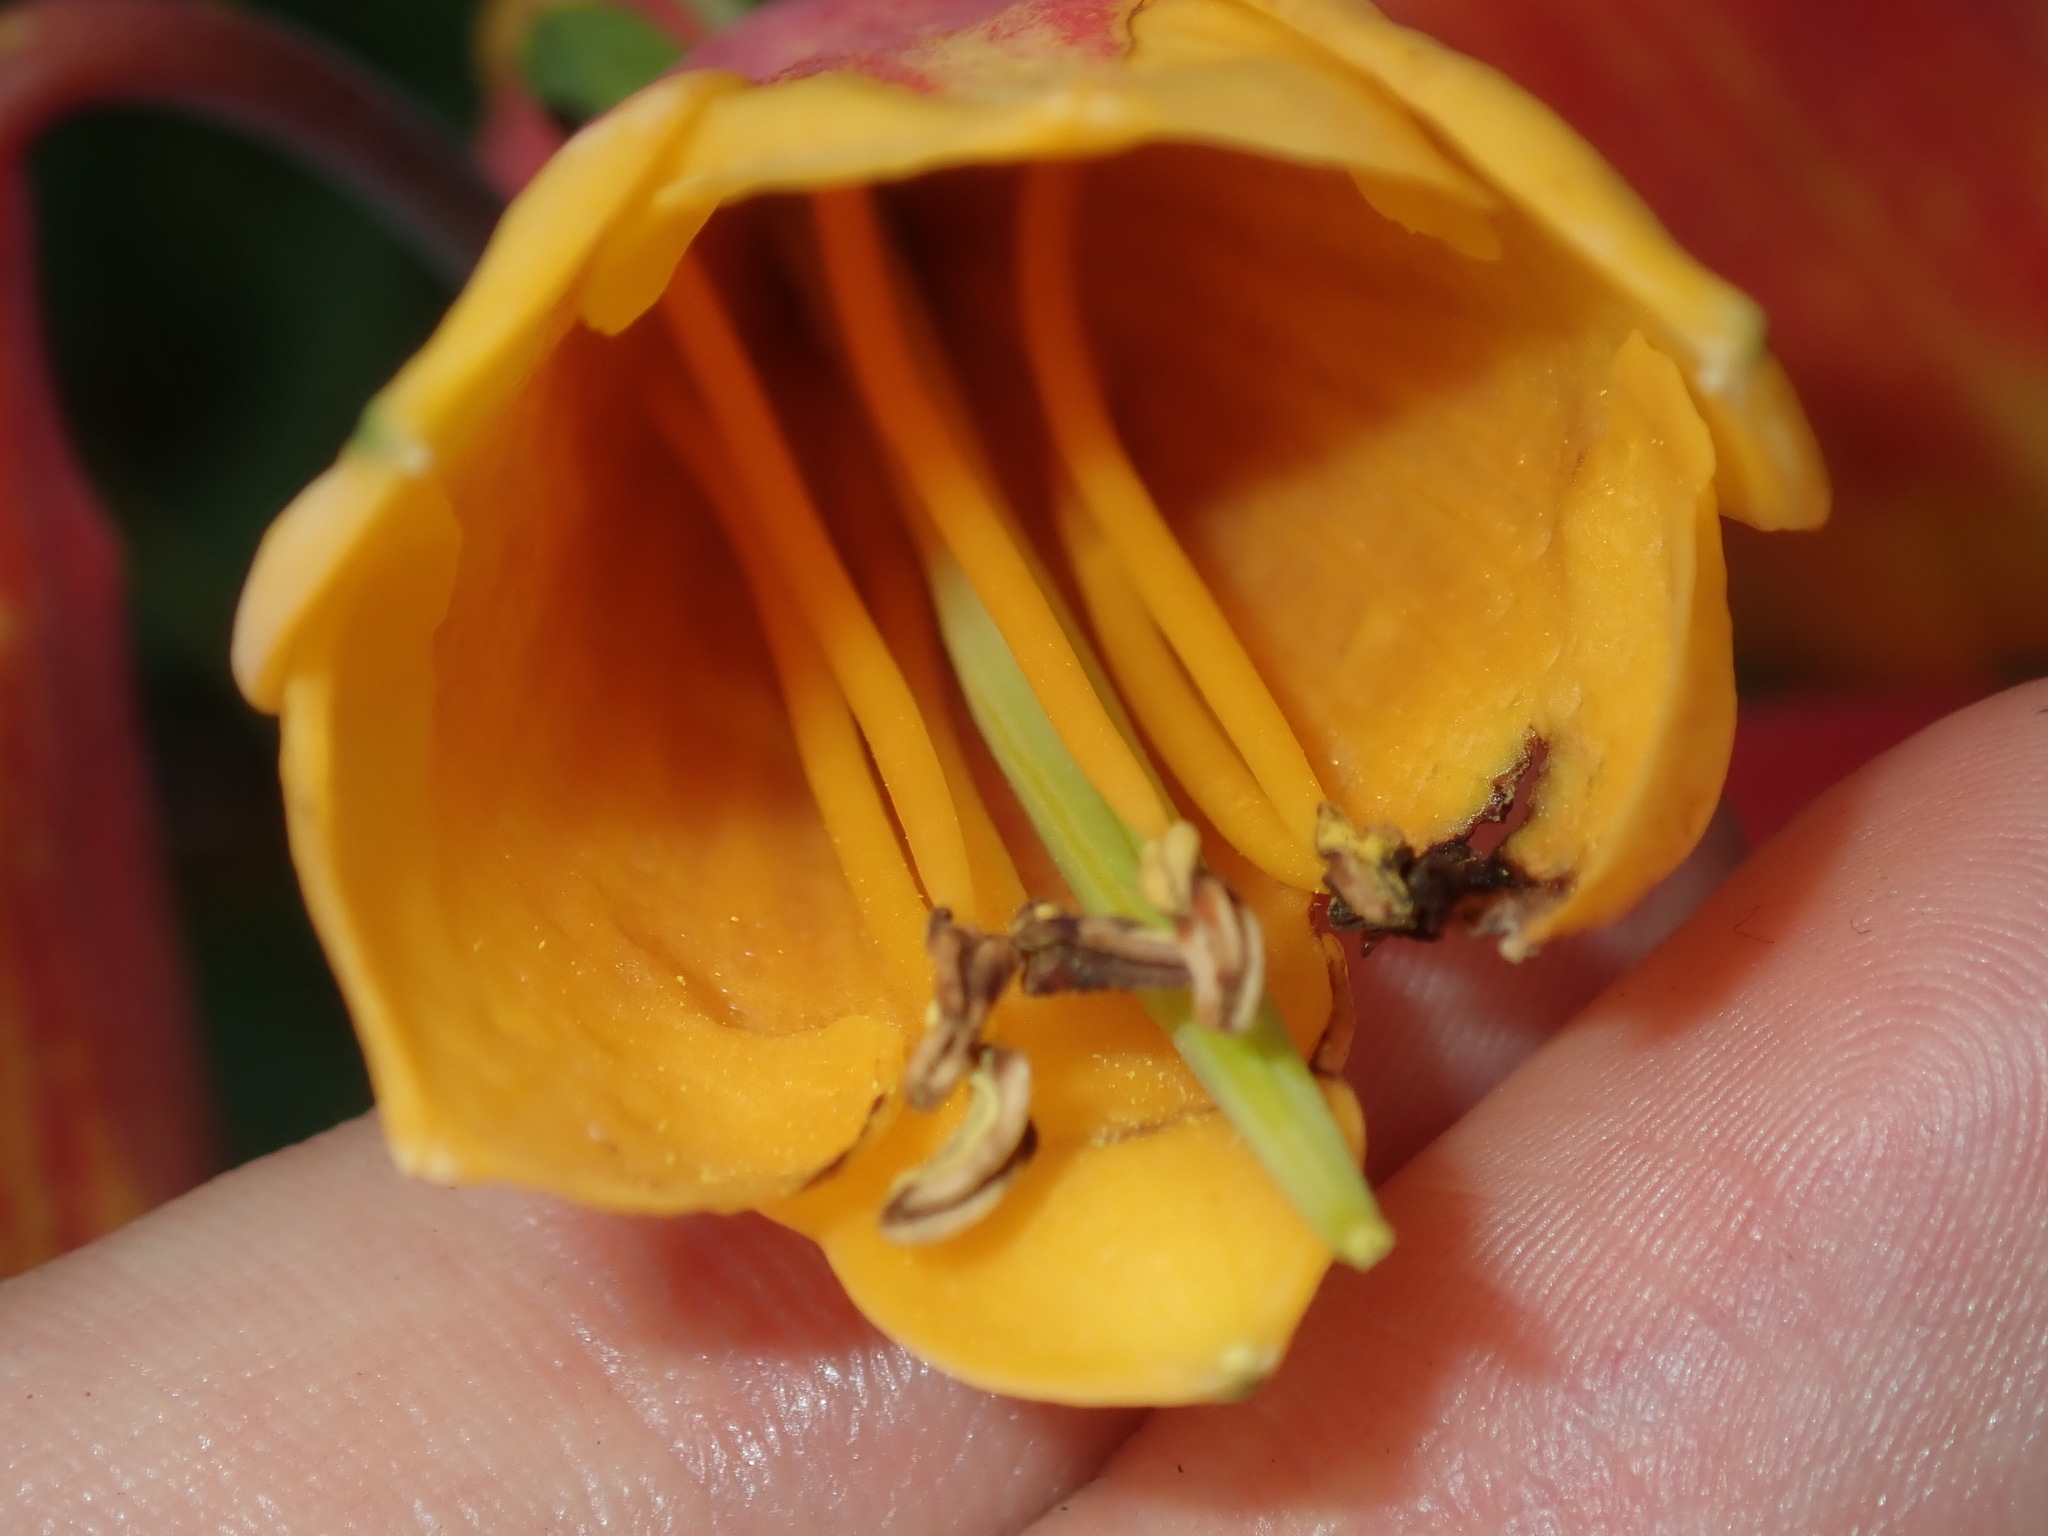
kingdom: Plantae
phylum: Tracheophyta
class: Liliopsida
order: Asparagales
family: Blandfordiaceae
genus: Blandfordia
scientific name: Blandfordia grandiflora
